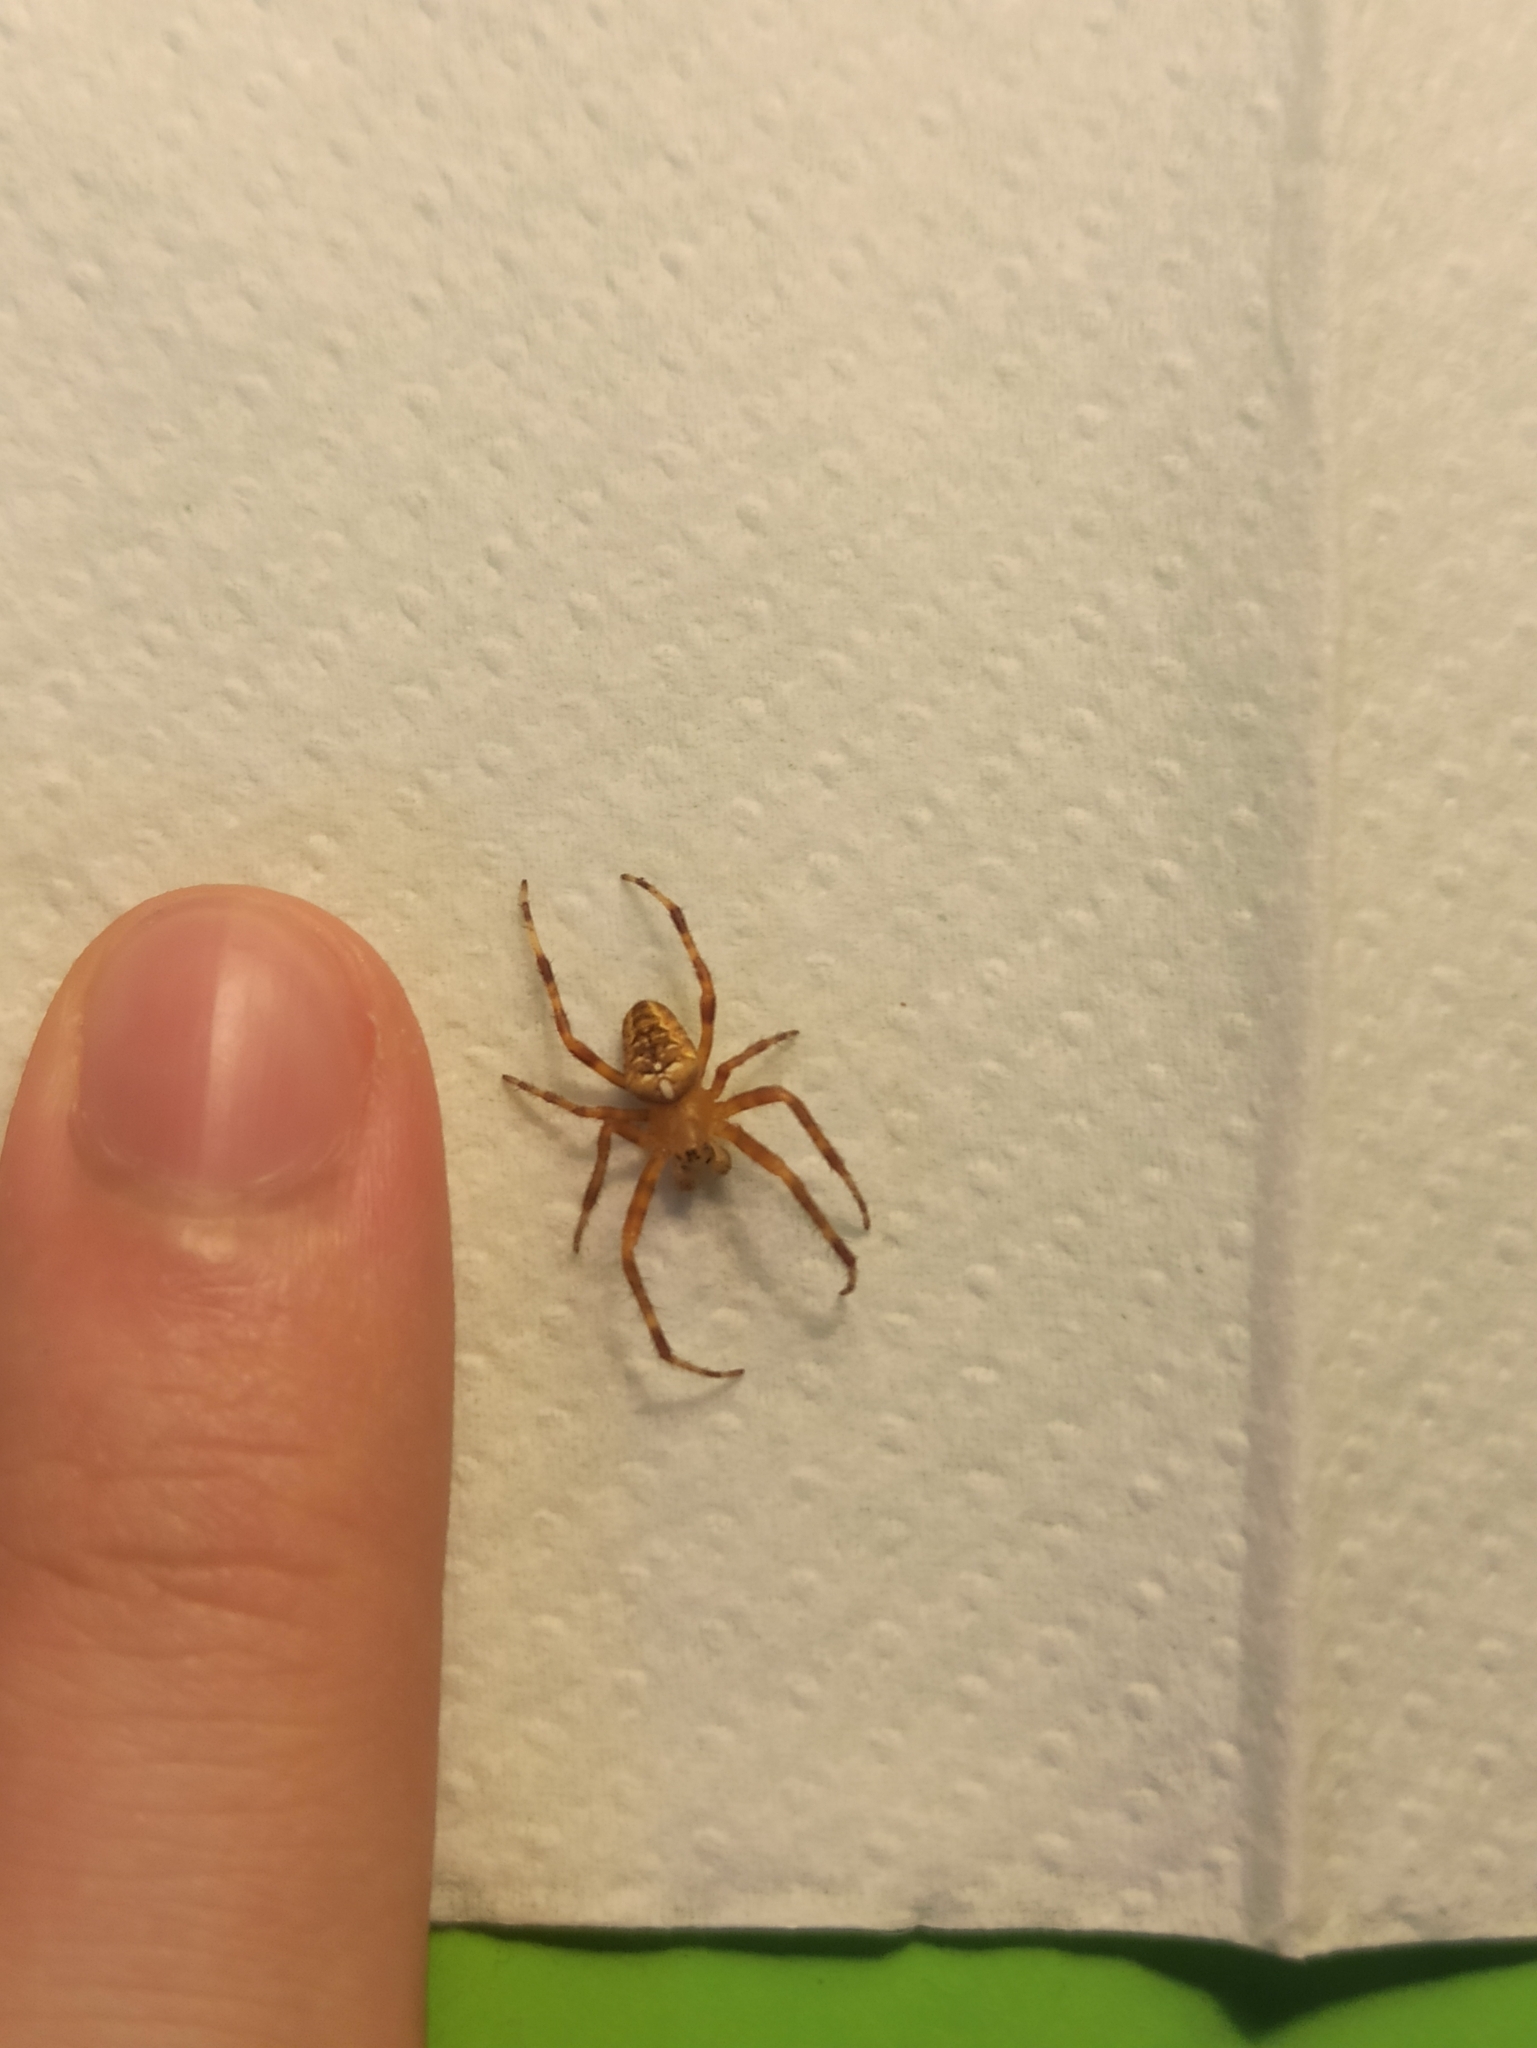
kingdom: Animalia
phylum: Arthropoda
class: Arachnida
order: Araneae
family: Araneidae
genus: Araneus
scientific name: Araneus diadematus
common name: Cross orbweaver
